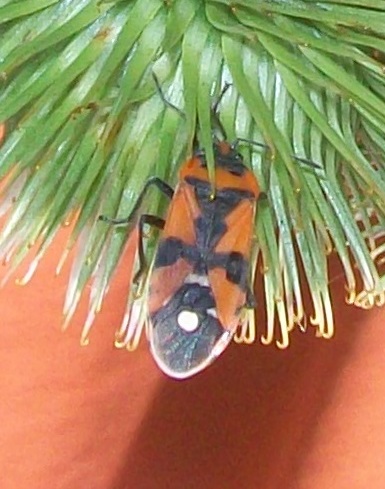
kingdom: Animalia
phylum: Arthropoda
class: Insecta
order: Hemiptera
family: Lygaeidae
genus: Lygaeus
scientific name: Lygaeus equestris
